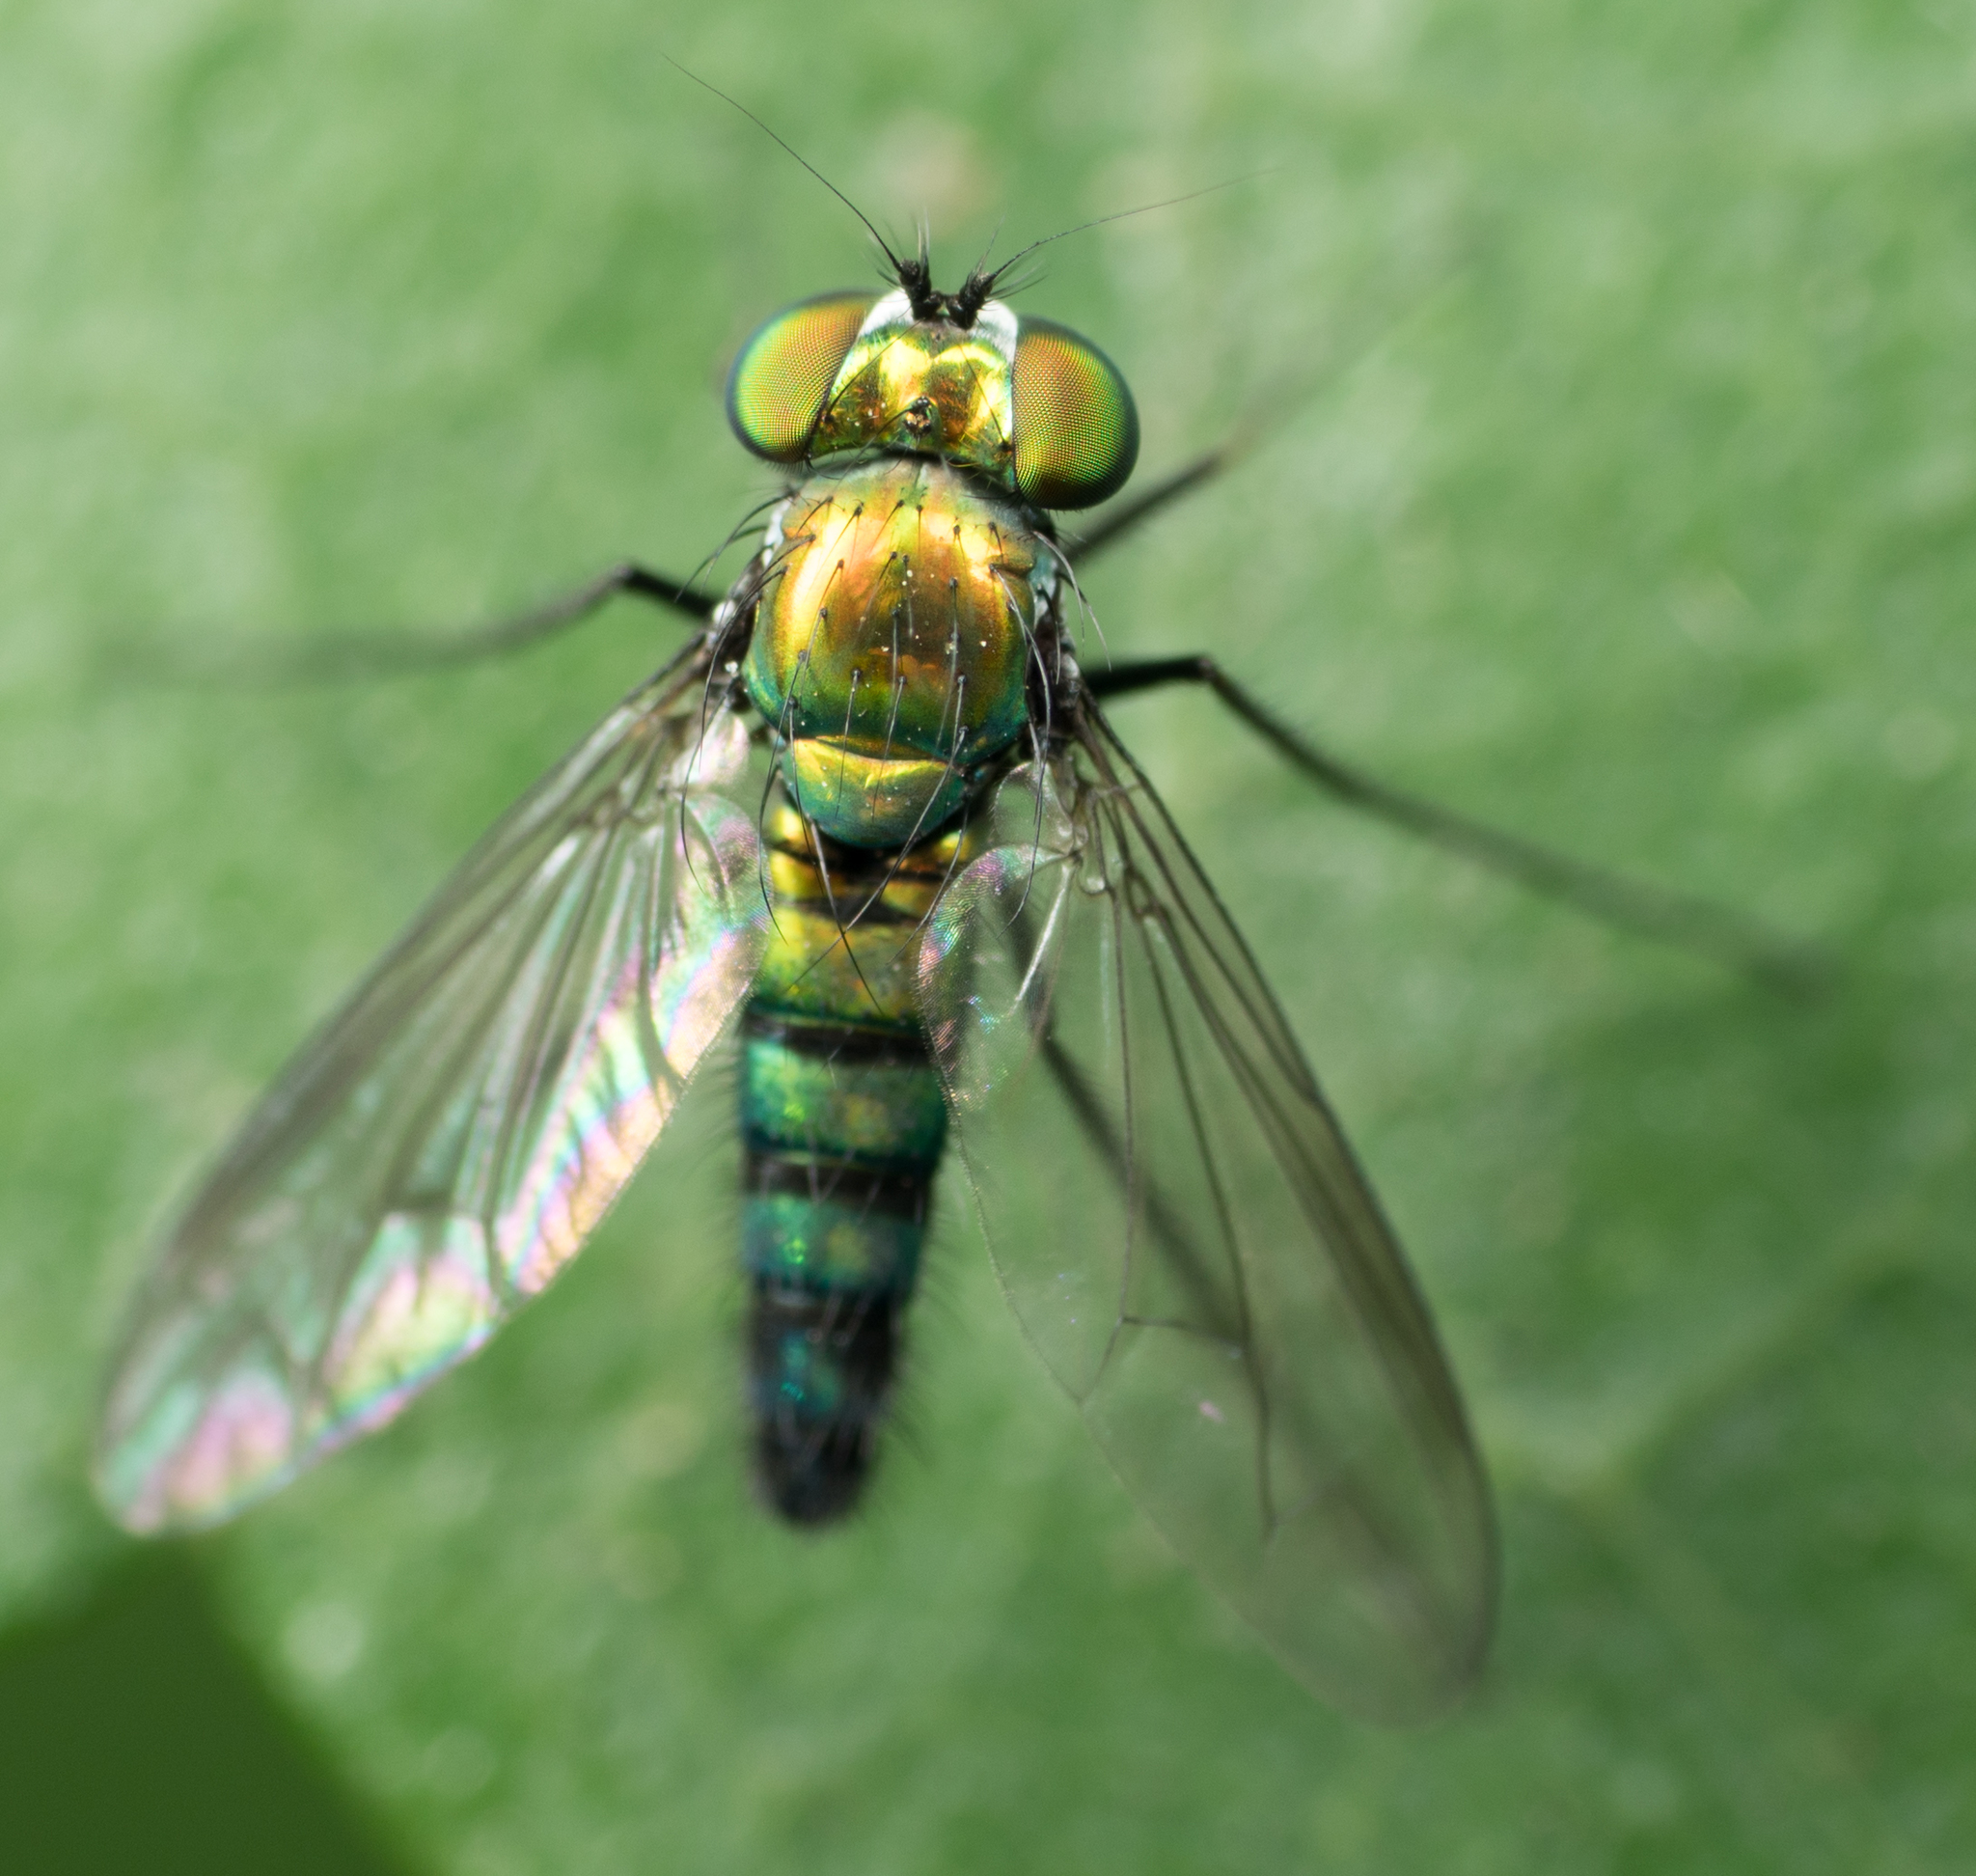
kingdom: Animalia
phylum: Arthropoda
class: Insecta
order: Diptera
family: Dolichopodidae
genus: Condylostylus
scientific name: Condylostylus longicornis
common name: Long-legged fly
